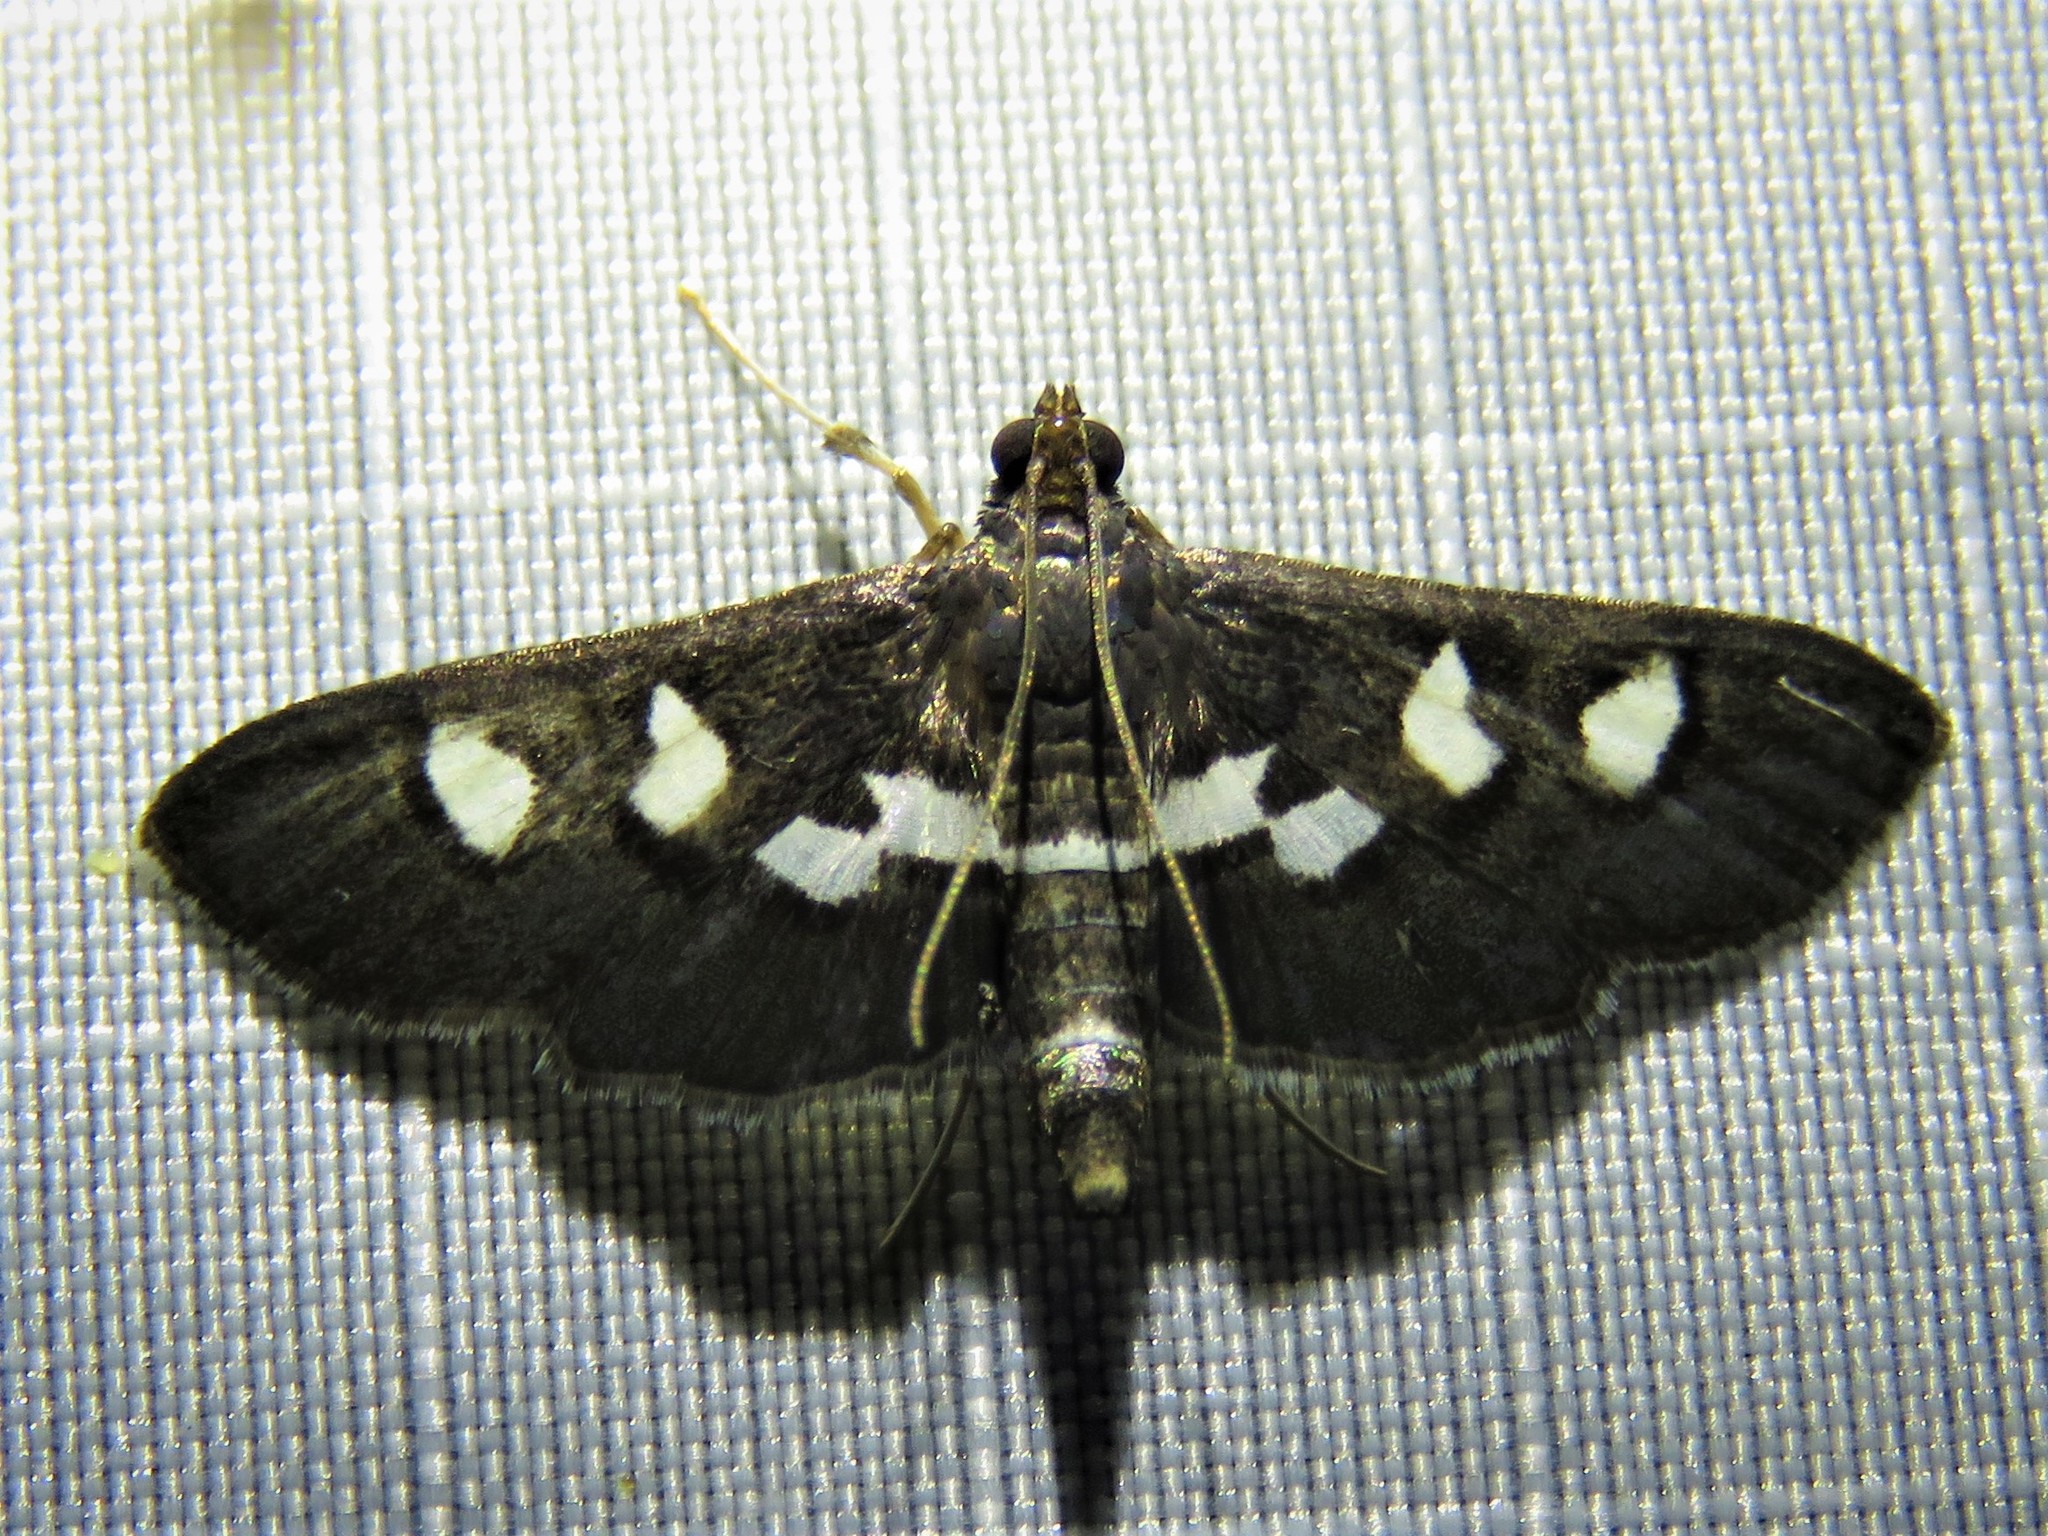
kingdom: Animalia
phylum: Arthropoda
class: Insecta
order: Lepidoptera
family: Crambidae
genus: Desmia
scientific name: Desmia
